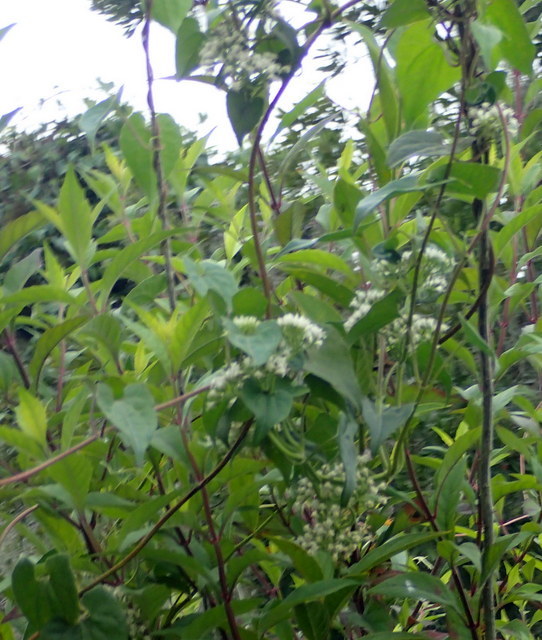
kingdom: Plantae
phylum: Tracheophyta
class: Magnoliopsida
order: Asterales
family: Asteraceae
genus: Mikania
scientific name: Mikania scandens
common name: Climbing hempvine
